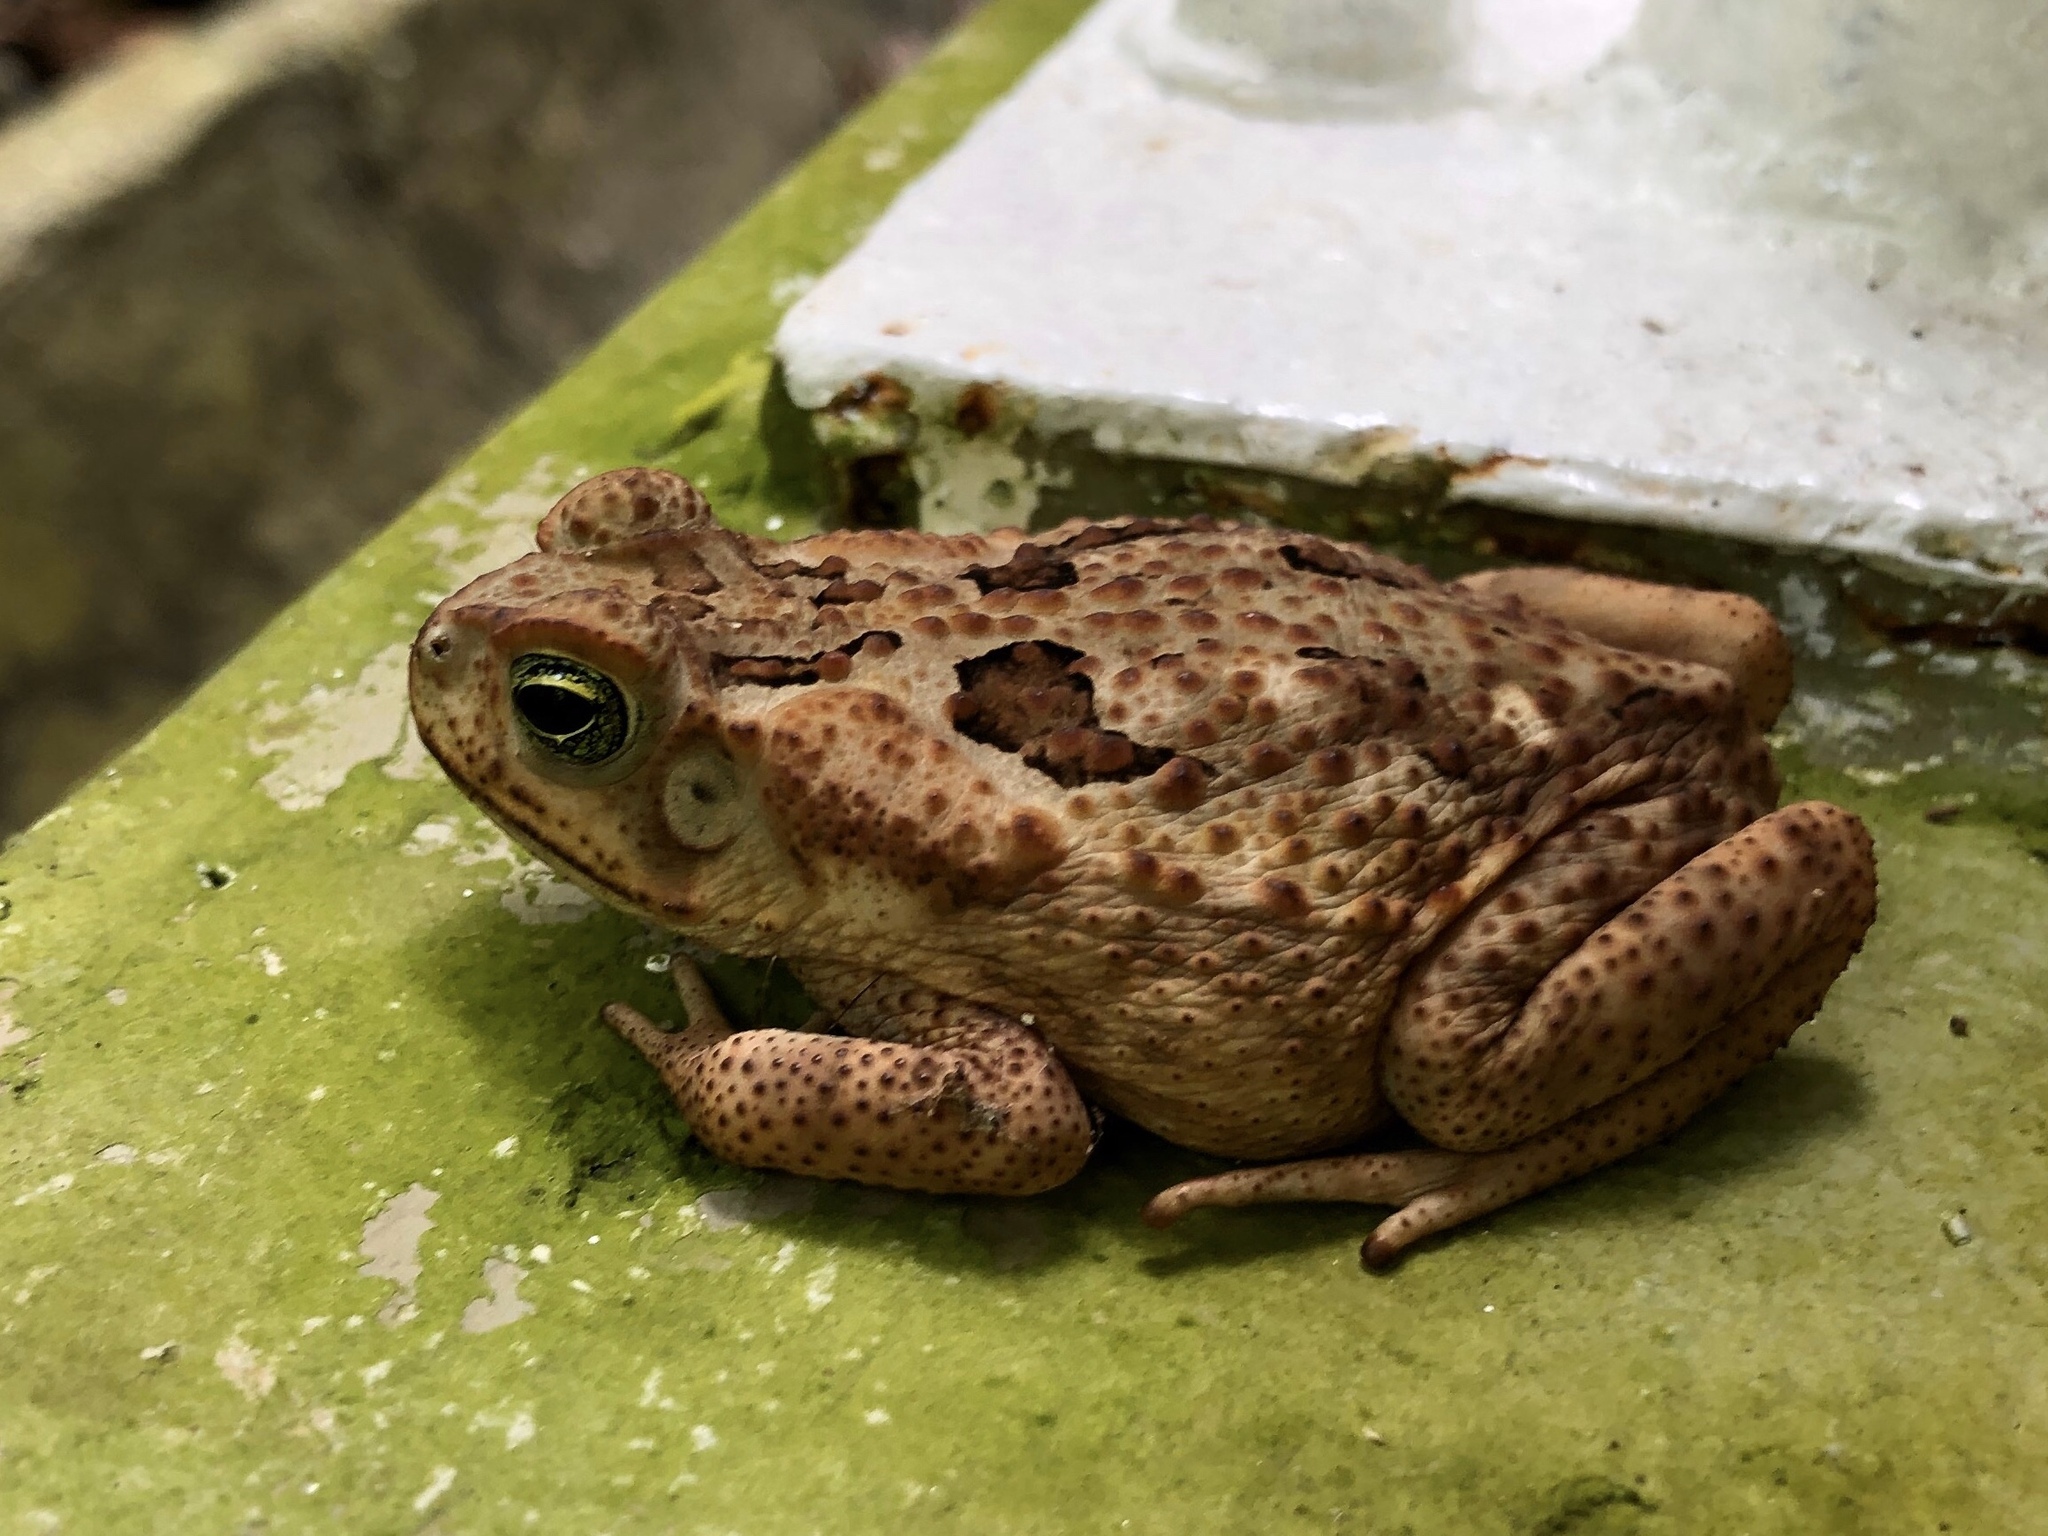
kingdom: Animalia
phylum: Chordata
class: Amphibia
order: Anura
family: Bufonidae
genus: Rhinella
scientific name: Rhinella horribilis
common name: Mesoamerican cane toad
